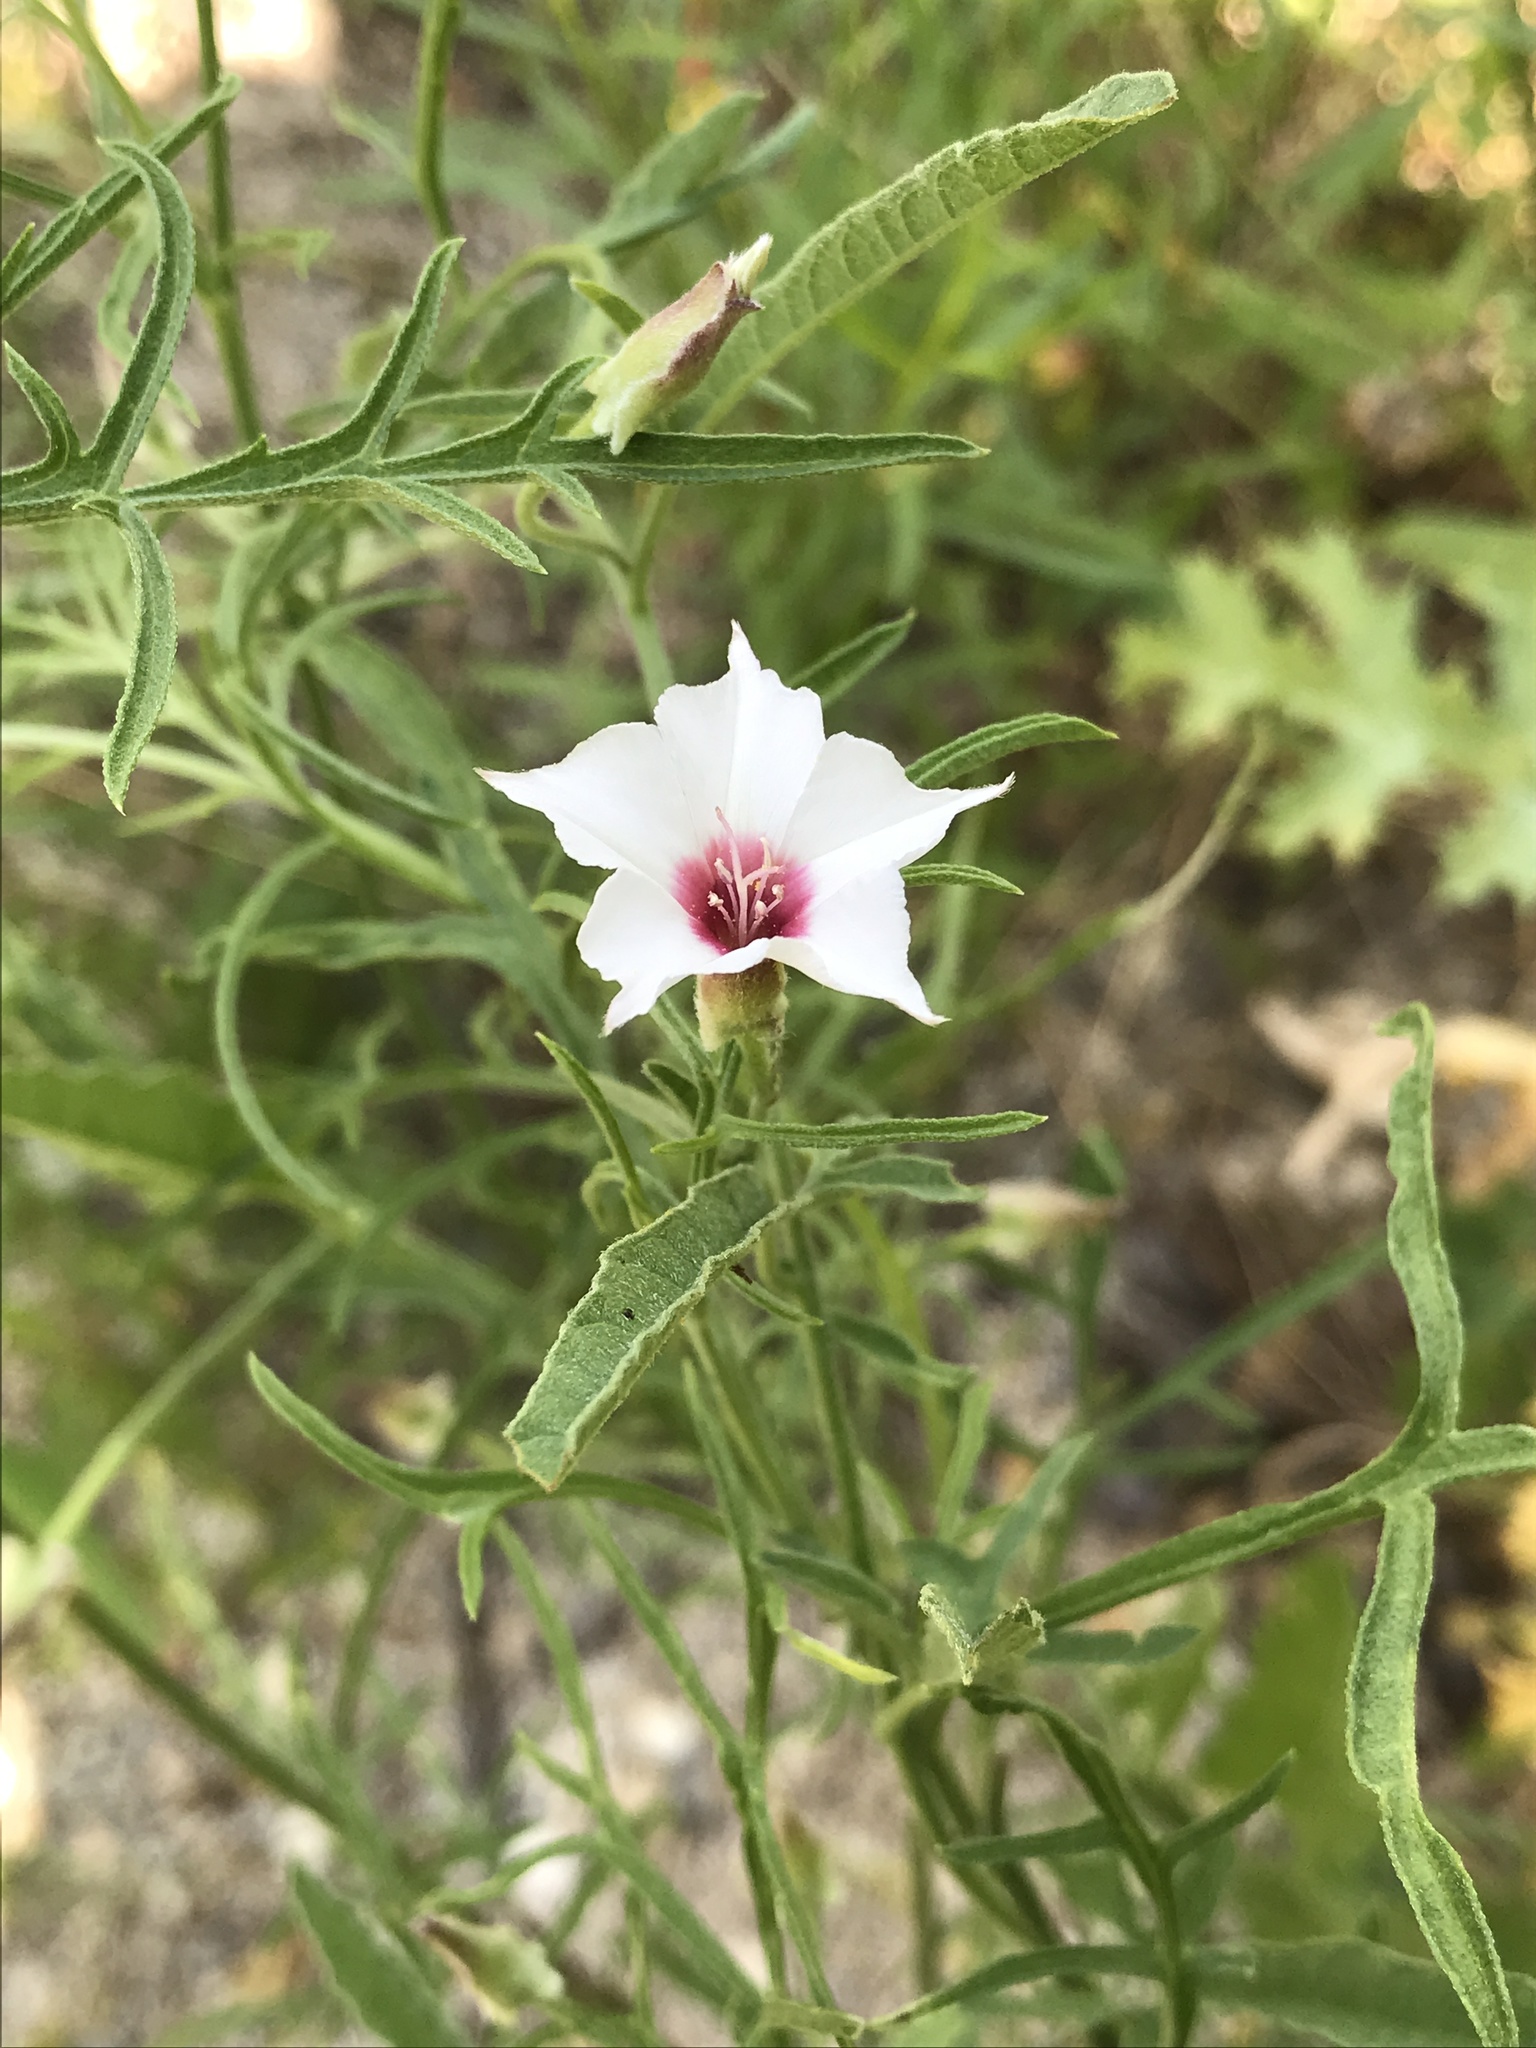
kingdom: Plantae
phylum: Tracheophyta
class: Magnoliopsida
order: Solanales
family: Convolvulaceae
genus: Convolvulus
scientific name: Convolvulus equitans
